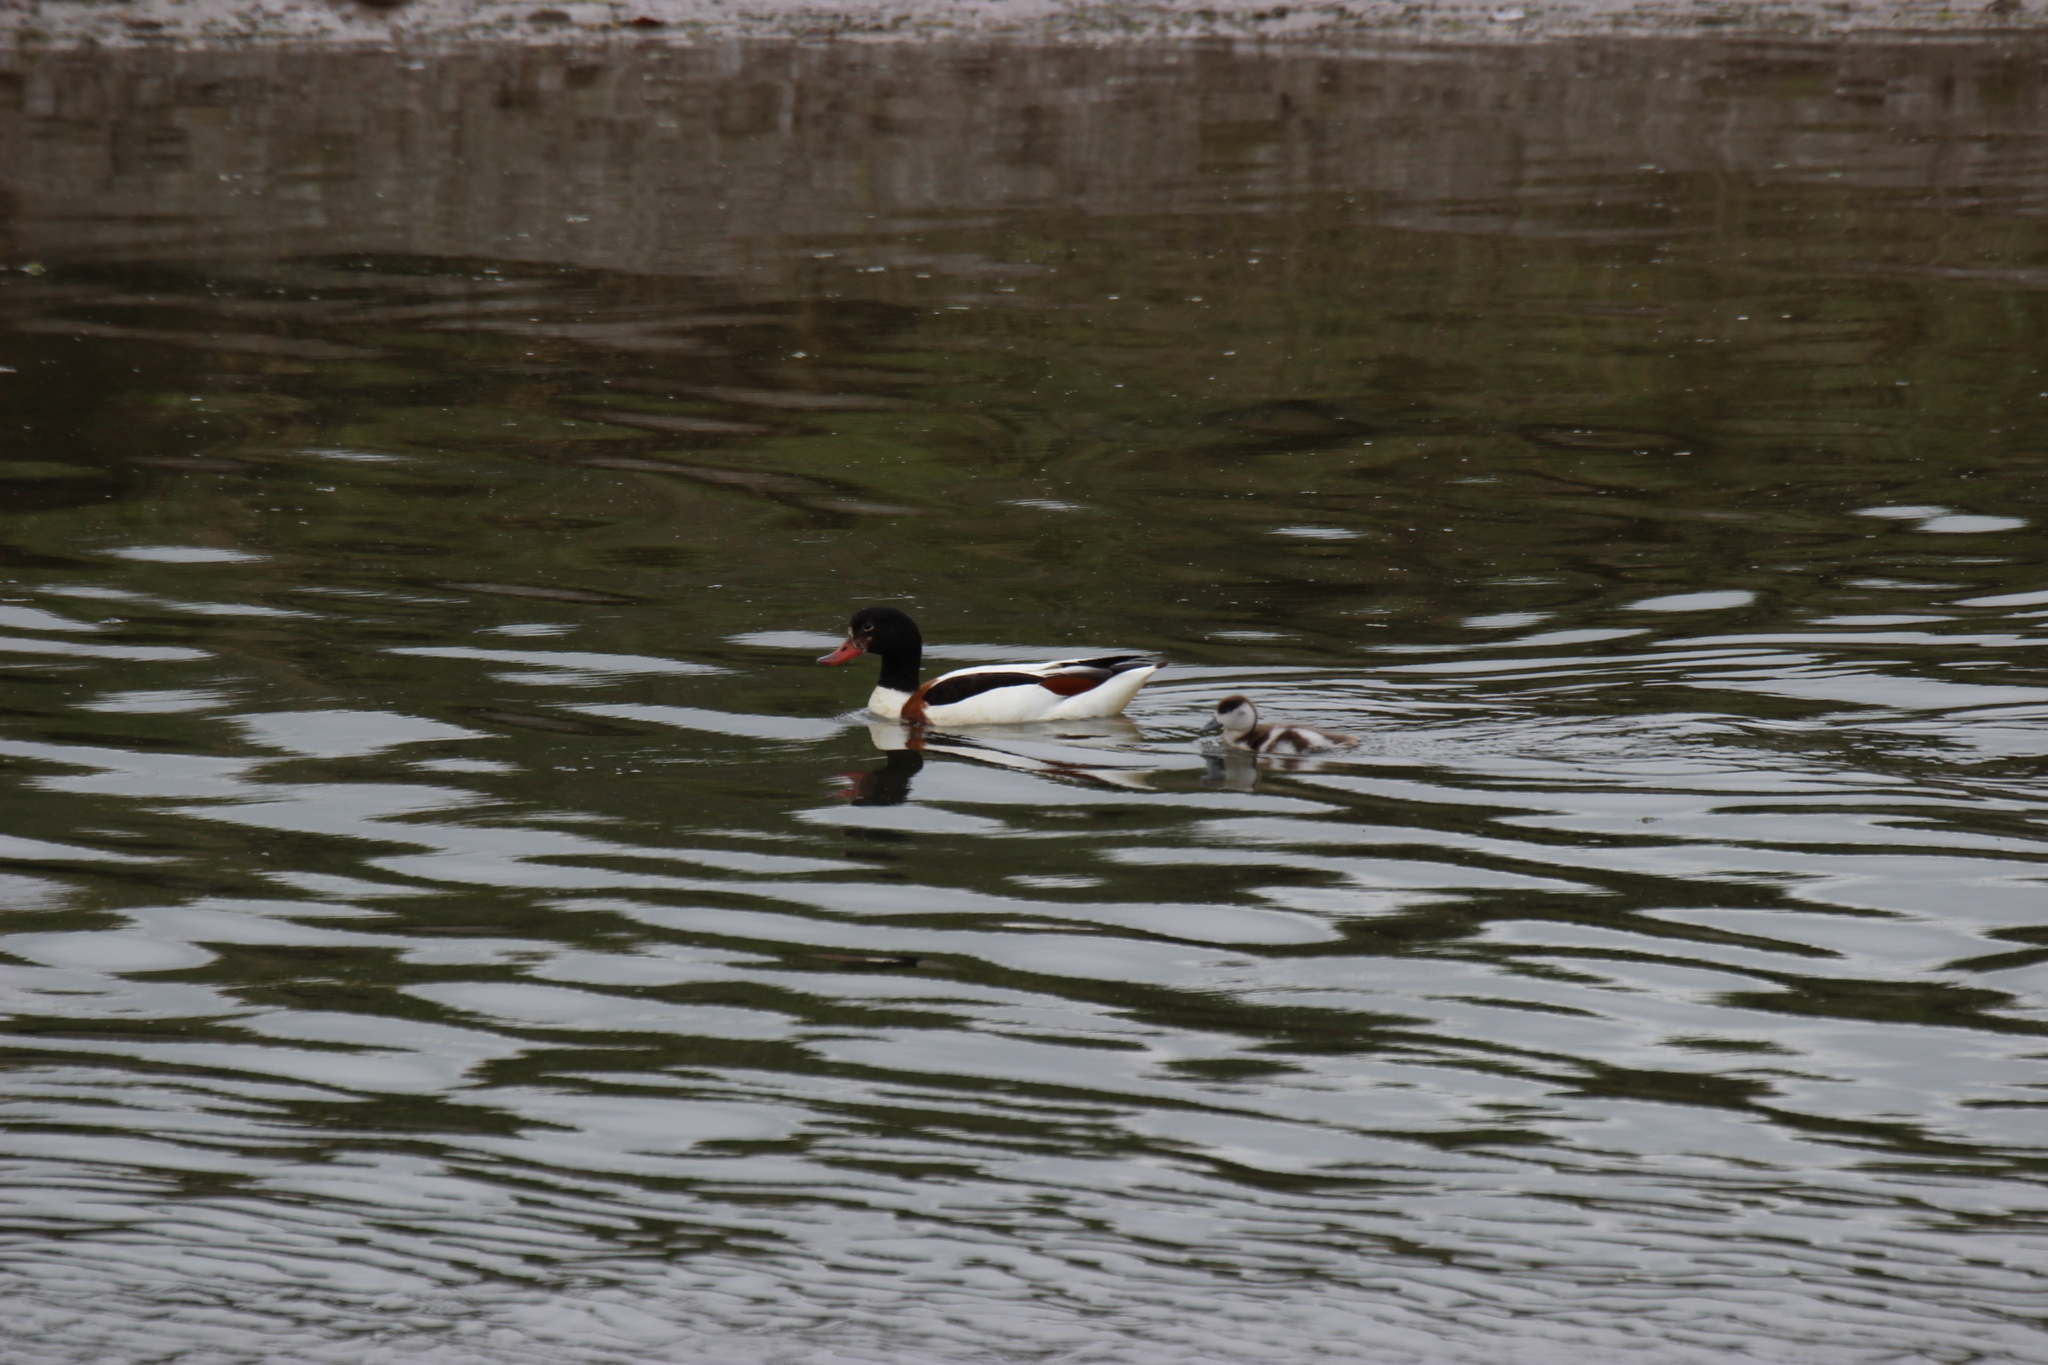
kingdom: Animalia
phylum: Chordata
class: Aves
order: Anseriformes
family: Anatidae
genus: Tadorna
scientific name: Tadorna tadorna
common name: Common shelduck
